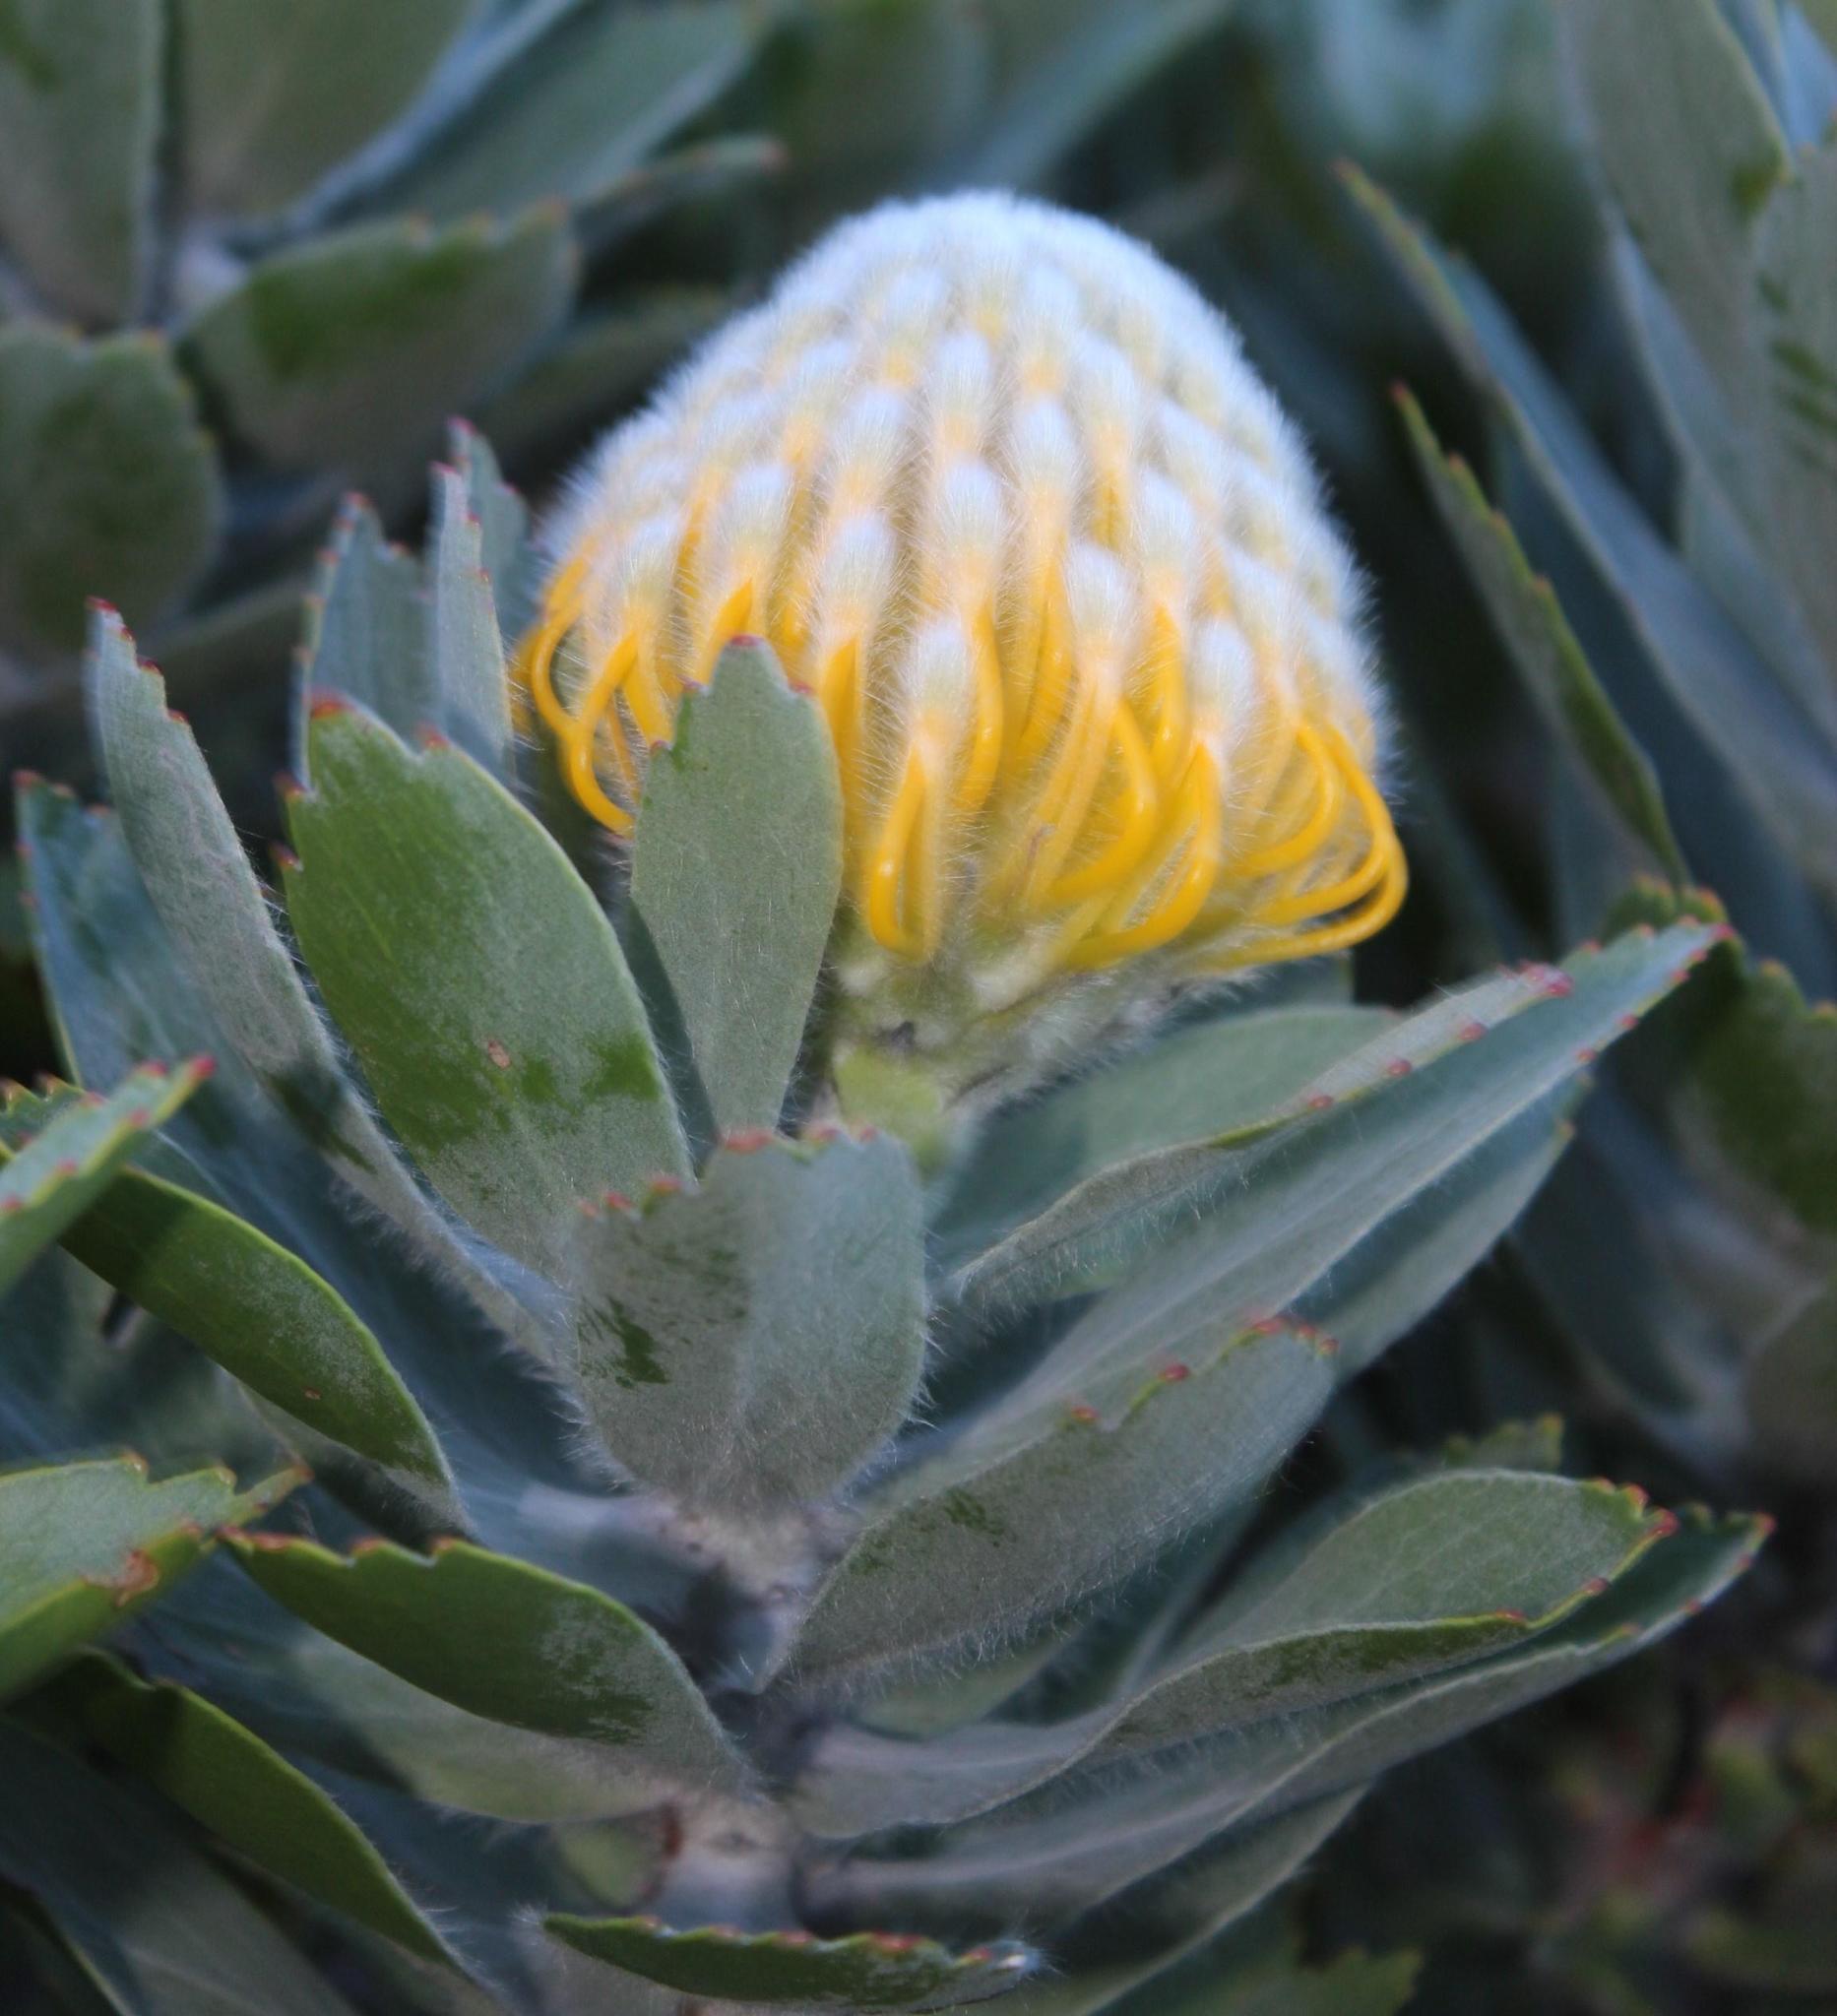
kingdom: Plantae
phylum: Tracheophyta
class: Magnoliopsida
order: Proteales
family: Proteaceae
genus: Leucospermum
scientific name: Leucospermum conocarpodendron
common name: Tree pincushion
